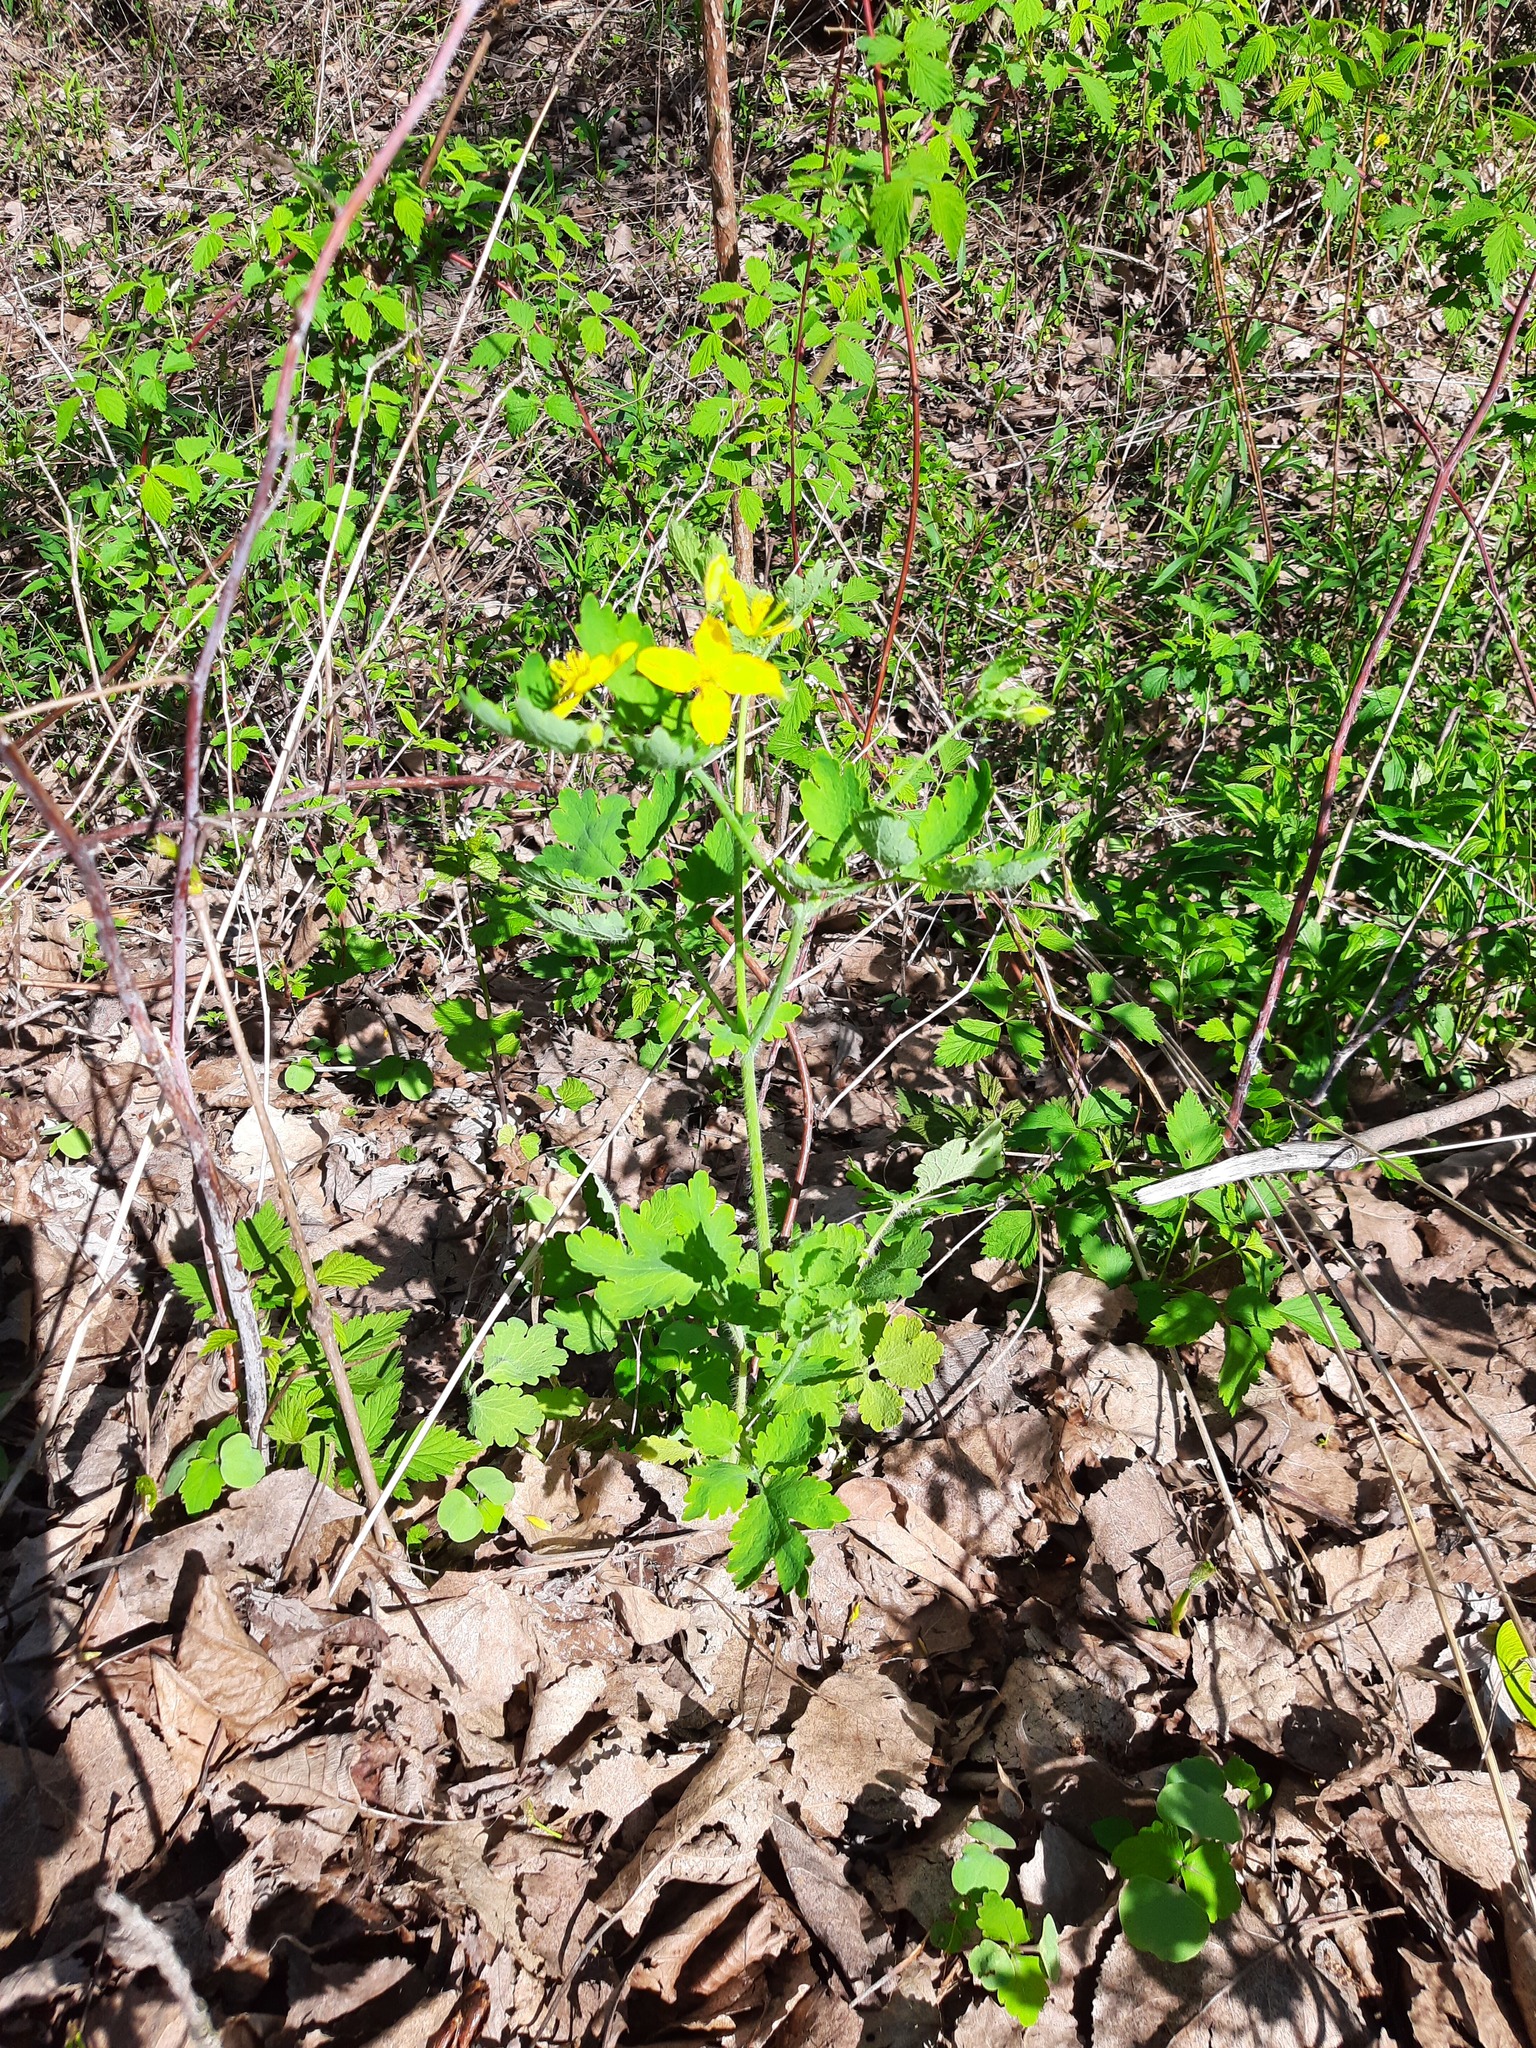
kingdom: Plantae
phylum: Tracheophyta
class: Magnoliopsida
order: Ranunculales
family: Papaveraceae
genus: Chelidonium
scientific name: Chelidonium majus
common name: Greater celandine
